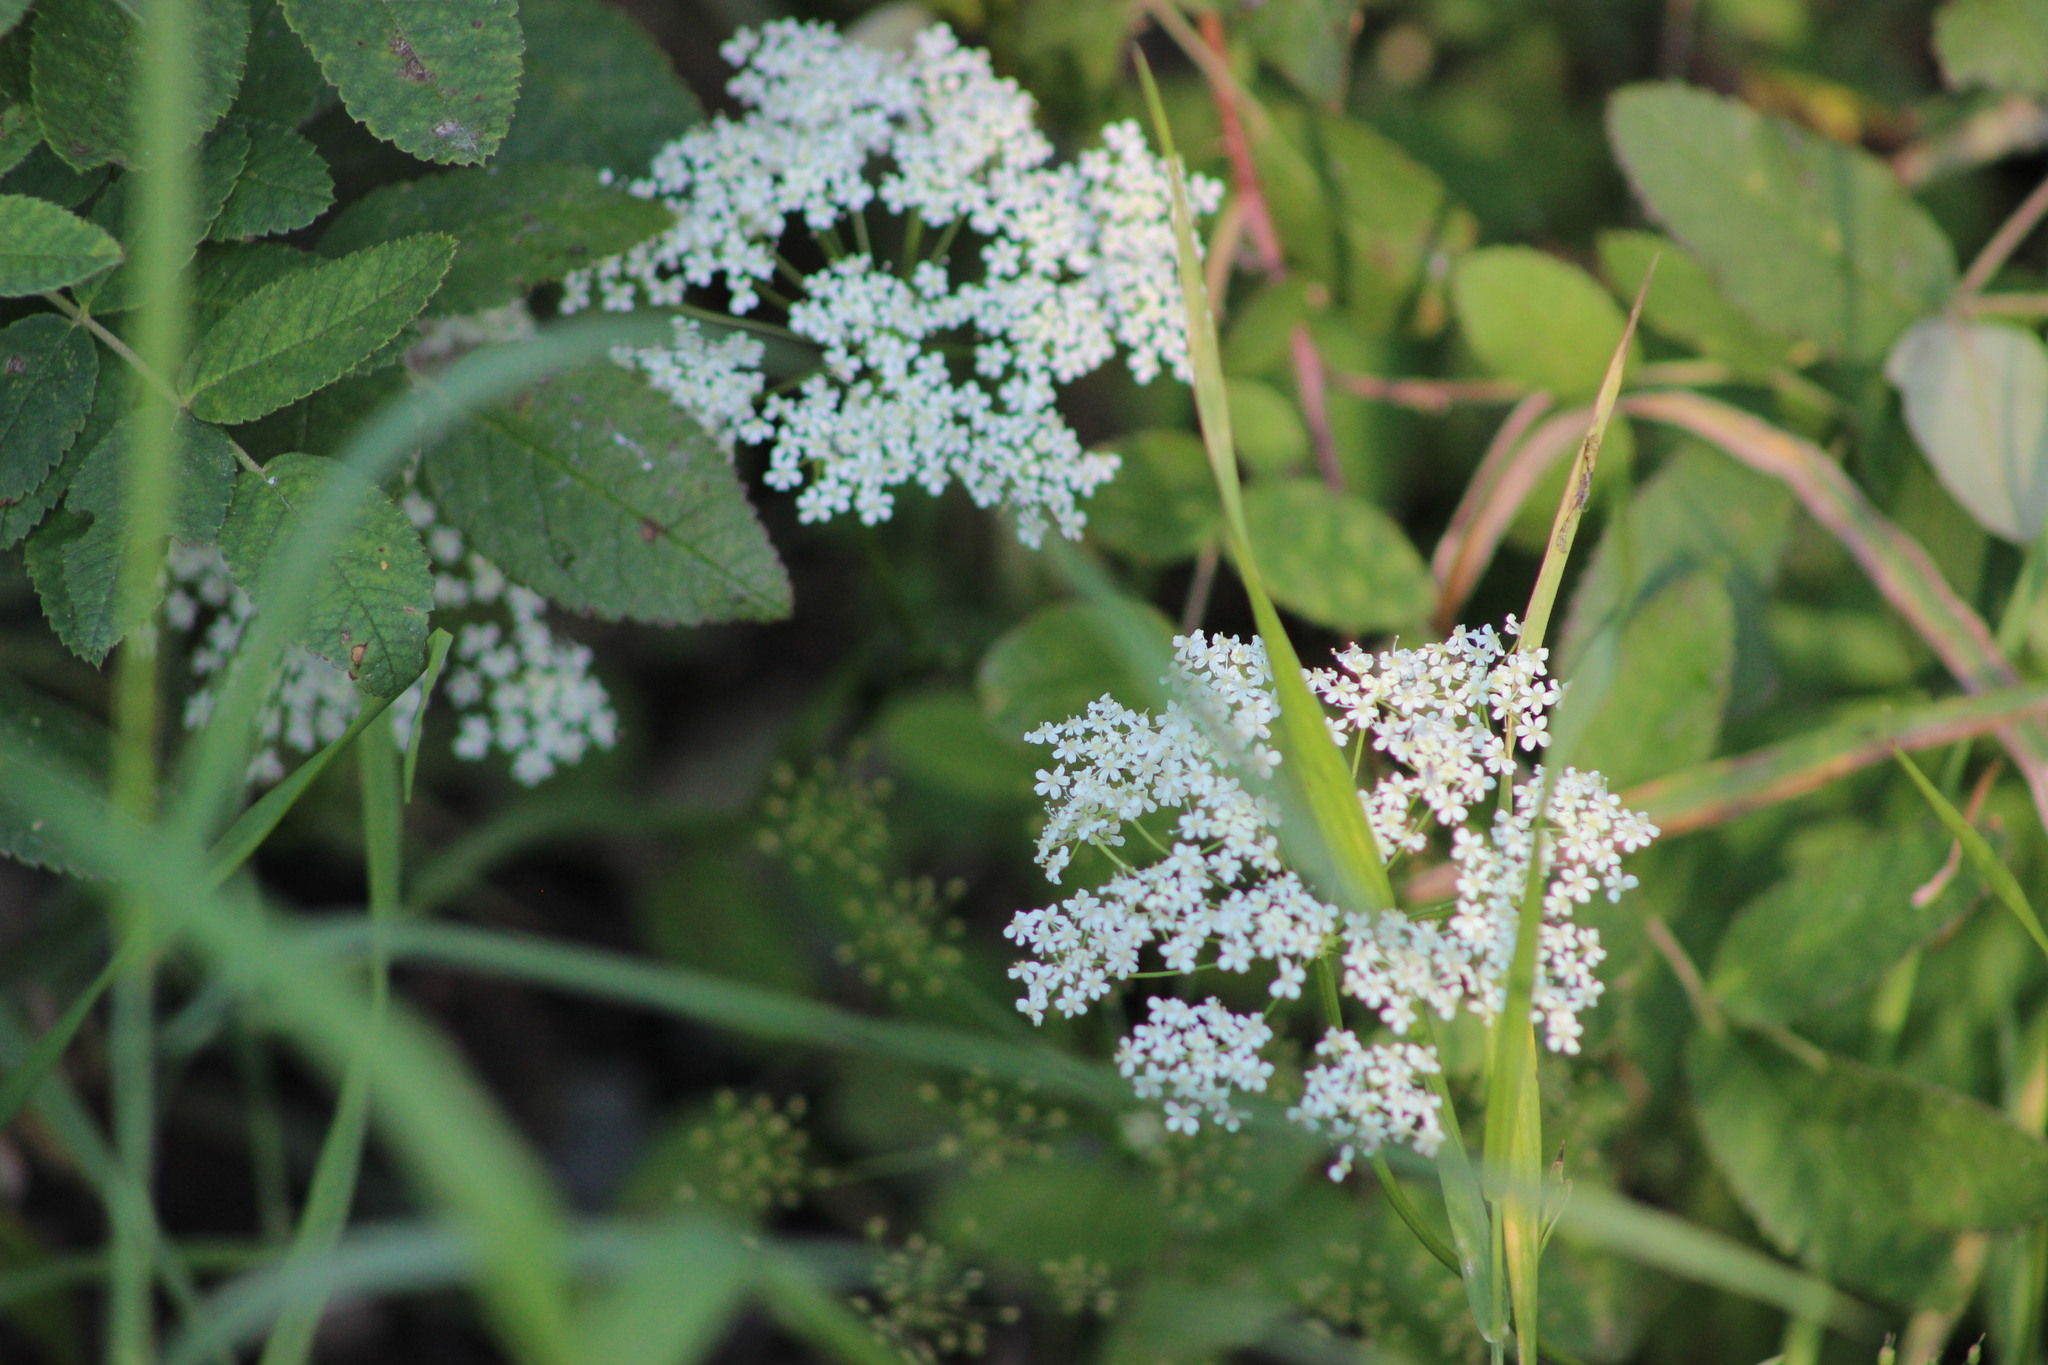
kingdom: Plantae
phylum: Tracheophyta
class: Magnoliopsida
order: Apiales
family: Apiaceae
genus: Pimpinella
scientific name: Pimpinella saxifraga
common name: Burnet-saxifrage
